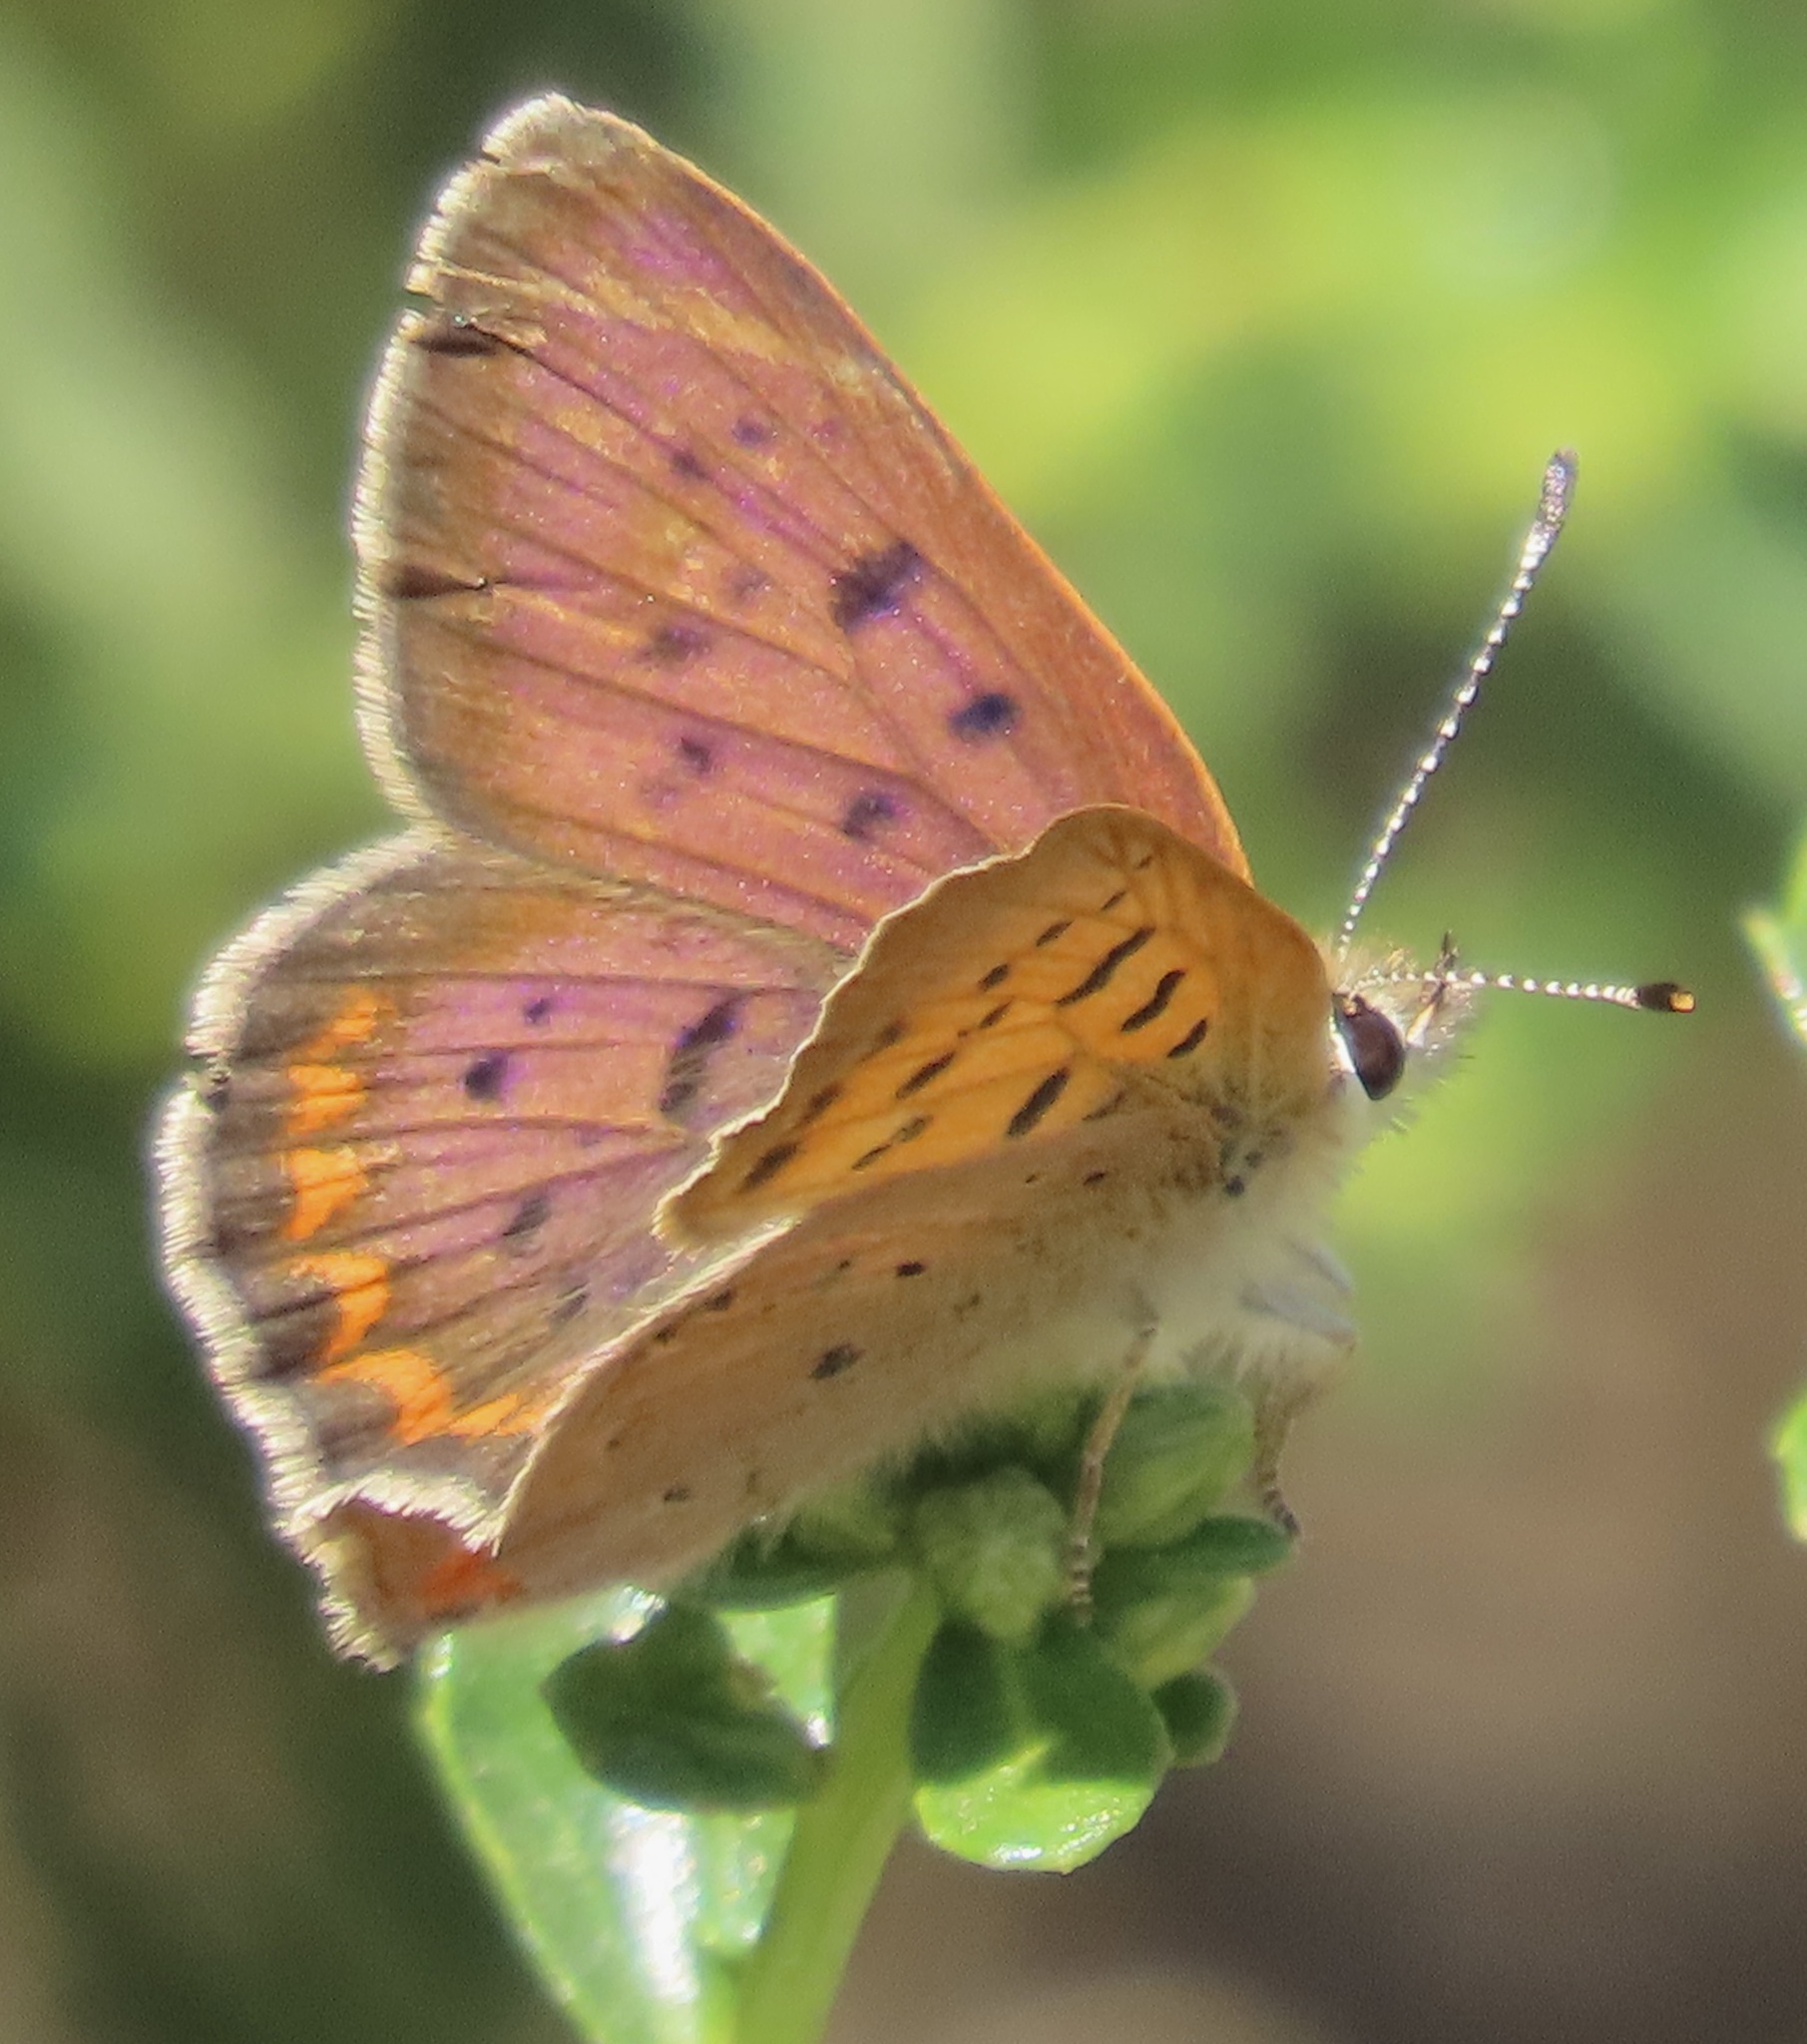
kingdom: Animalia
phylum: Arthropoda
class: Insecta
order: Lepidoptera
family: Lycaenidae
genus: Tharsalea
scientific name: Tharsalea helloides
